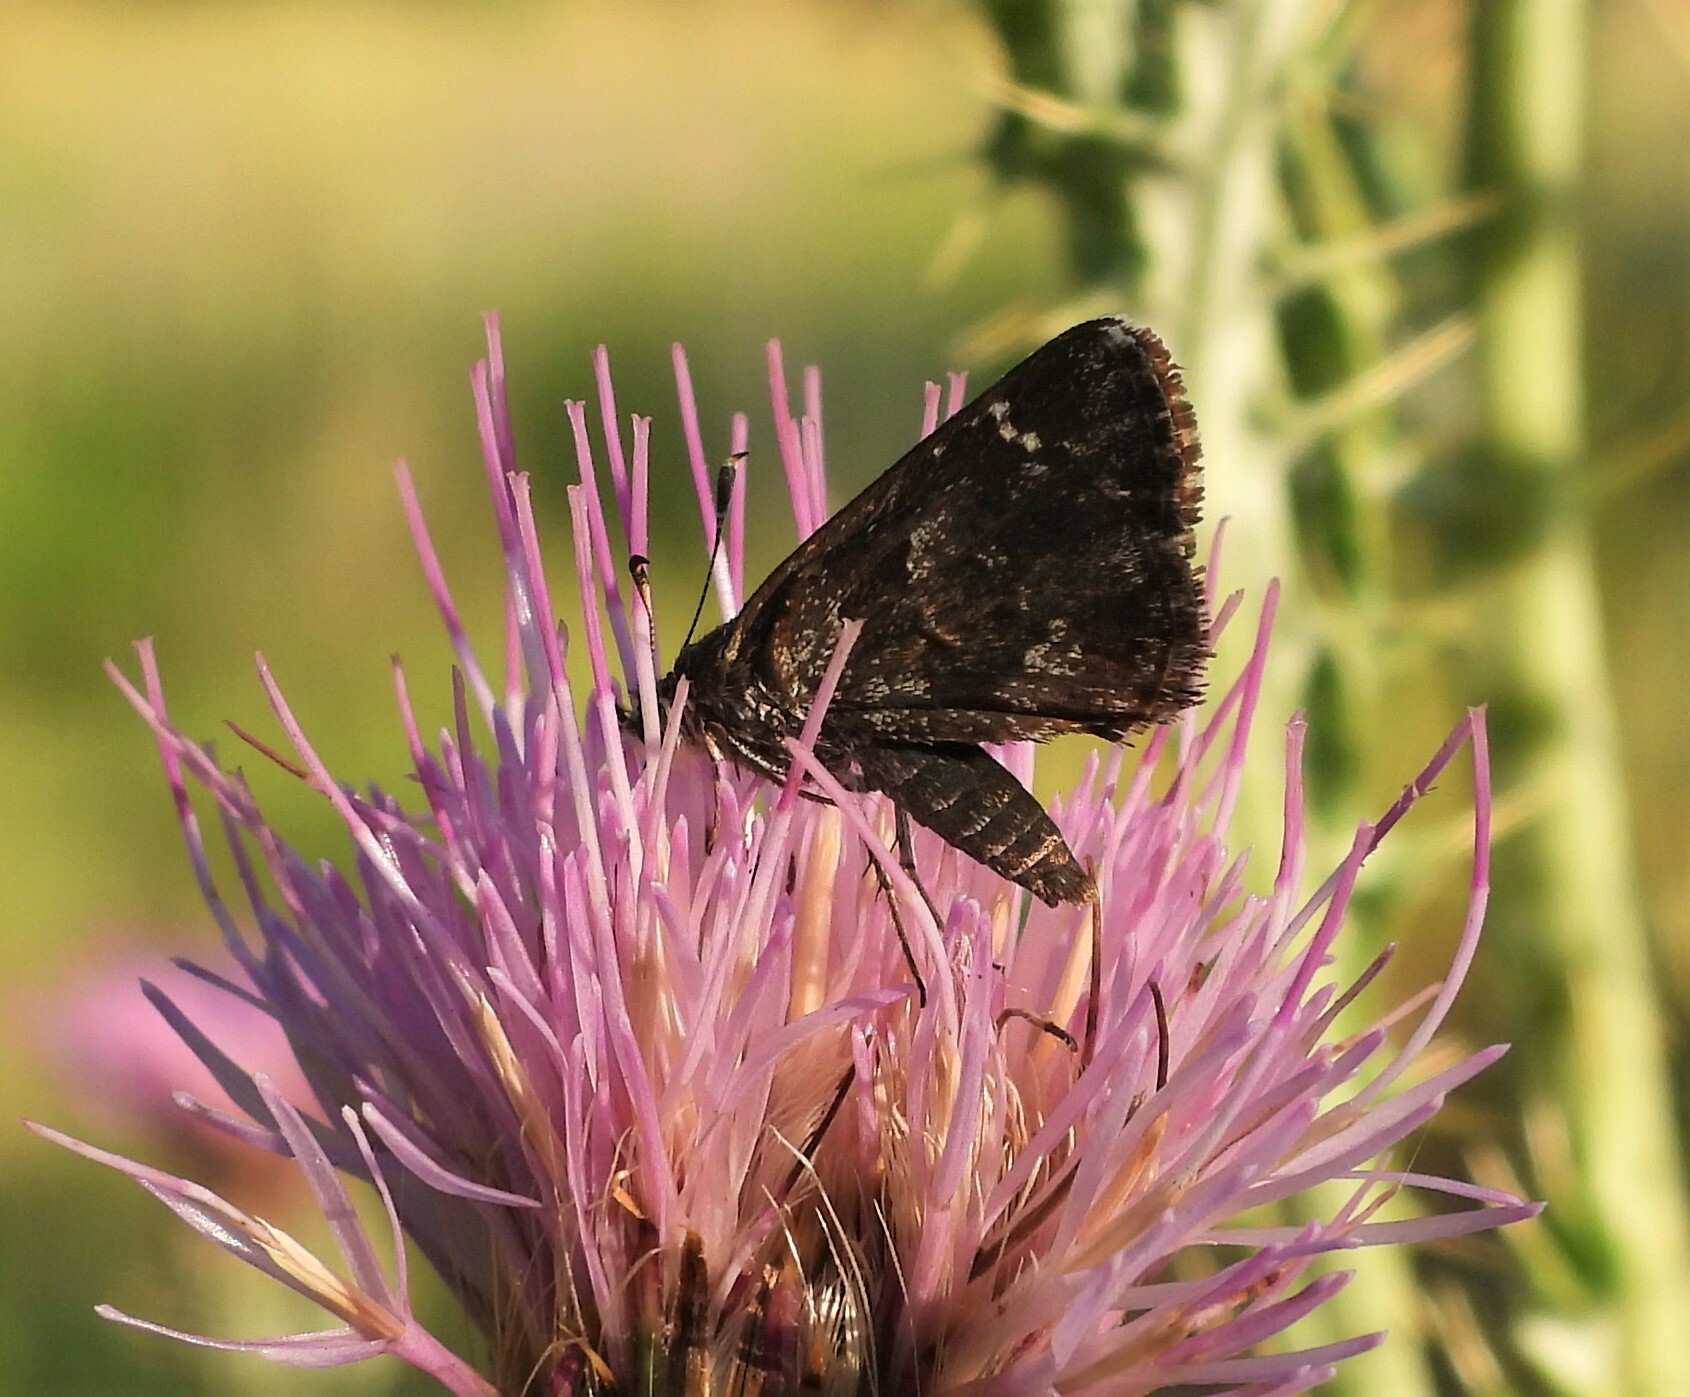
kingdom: Animalia
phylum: Arthropoda
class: Insecta
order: Lepidoptera
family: Hesperiidae
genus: Mastor
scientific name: Mastor nysa
